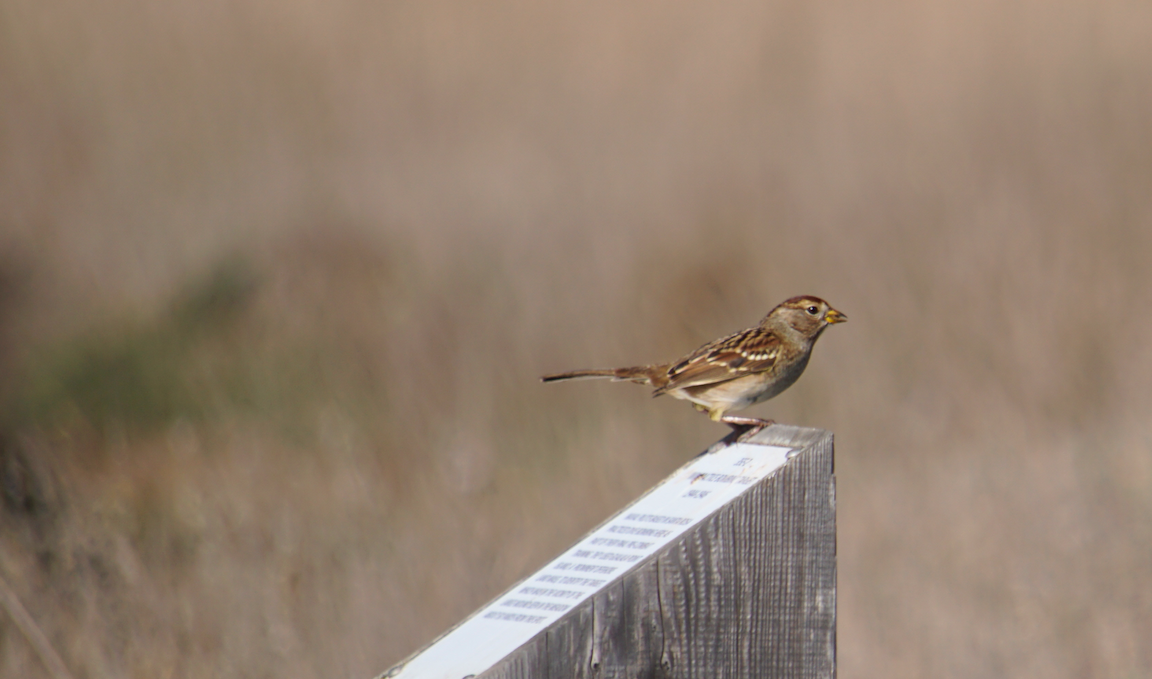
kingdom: Animalia
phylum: Chordata
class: Aves
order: Passeriformes
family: Passerellidae
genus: Zonotrichia
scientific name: Zonotrichia leucophrys
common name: White-crowned sparrow
